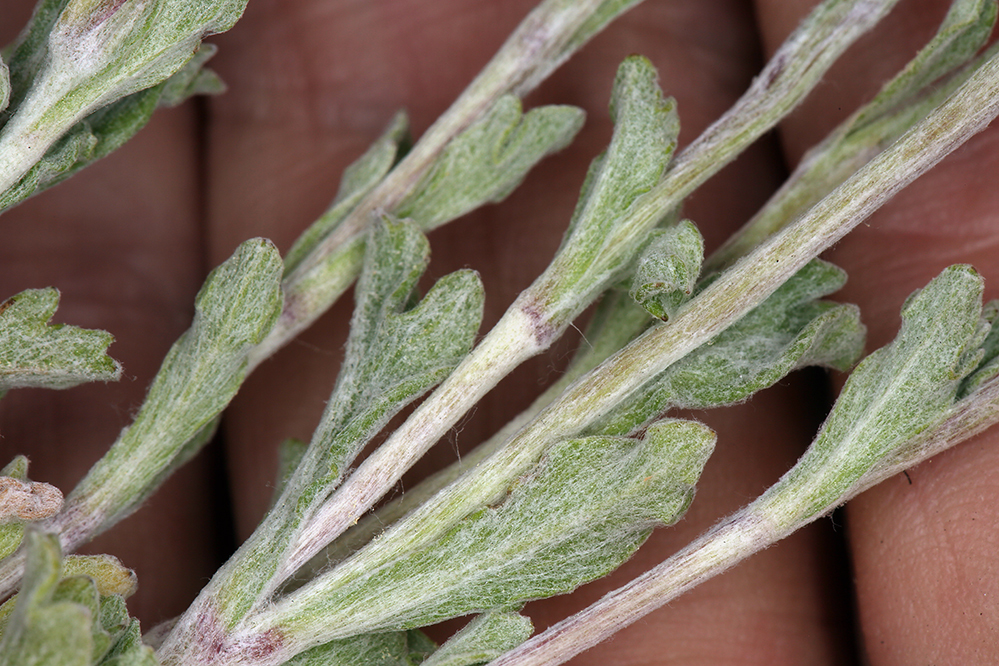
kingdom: Plantae
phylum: Tracheophyta
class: Magnoliopsida
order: Asterales
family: Asteraceae
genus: Eriophyllum
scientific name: Eriophyllum lanatum
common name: Common woolly-sunflower
